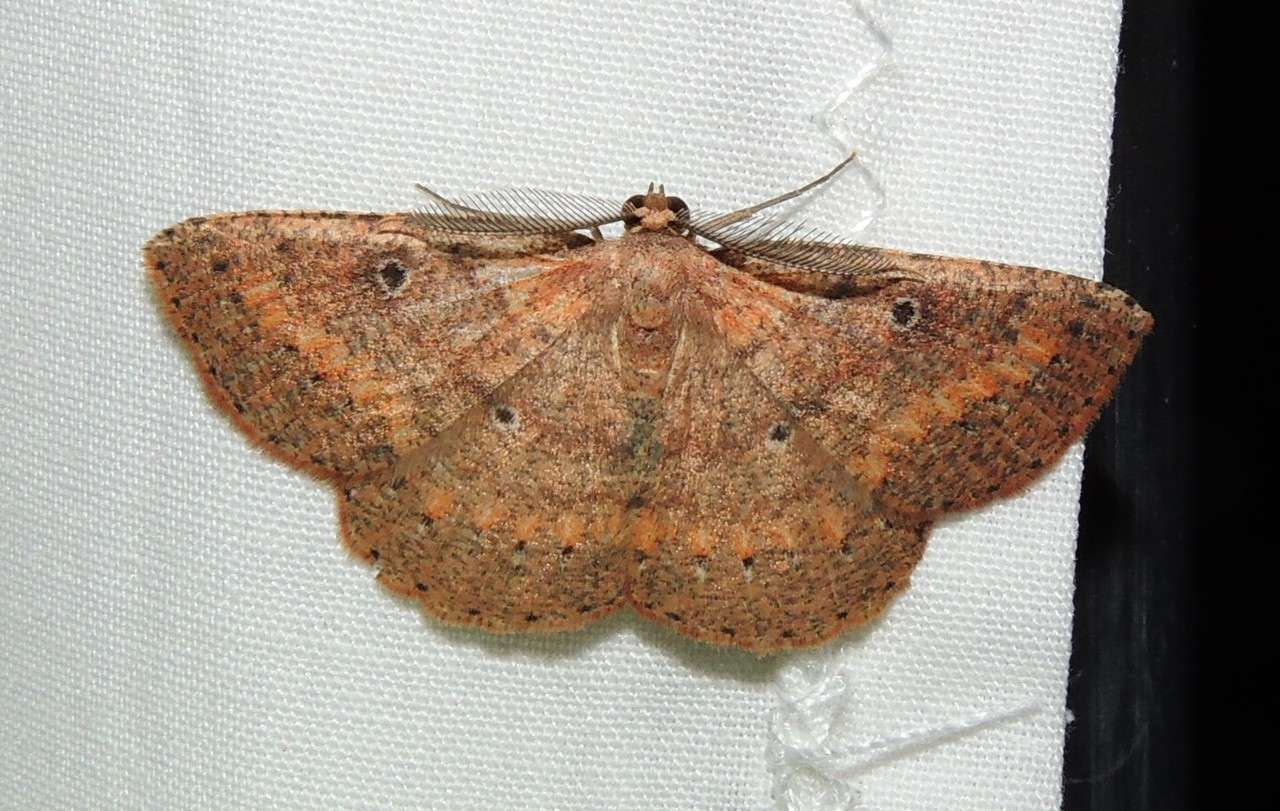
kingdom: Animalia
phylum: Arthropoda
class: Insecta
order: Lepidoptera
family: Geometridae
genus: Casbia
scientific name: Casbia melanops
